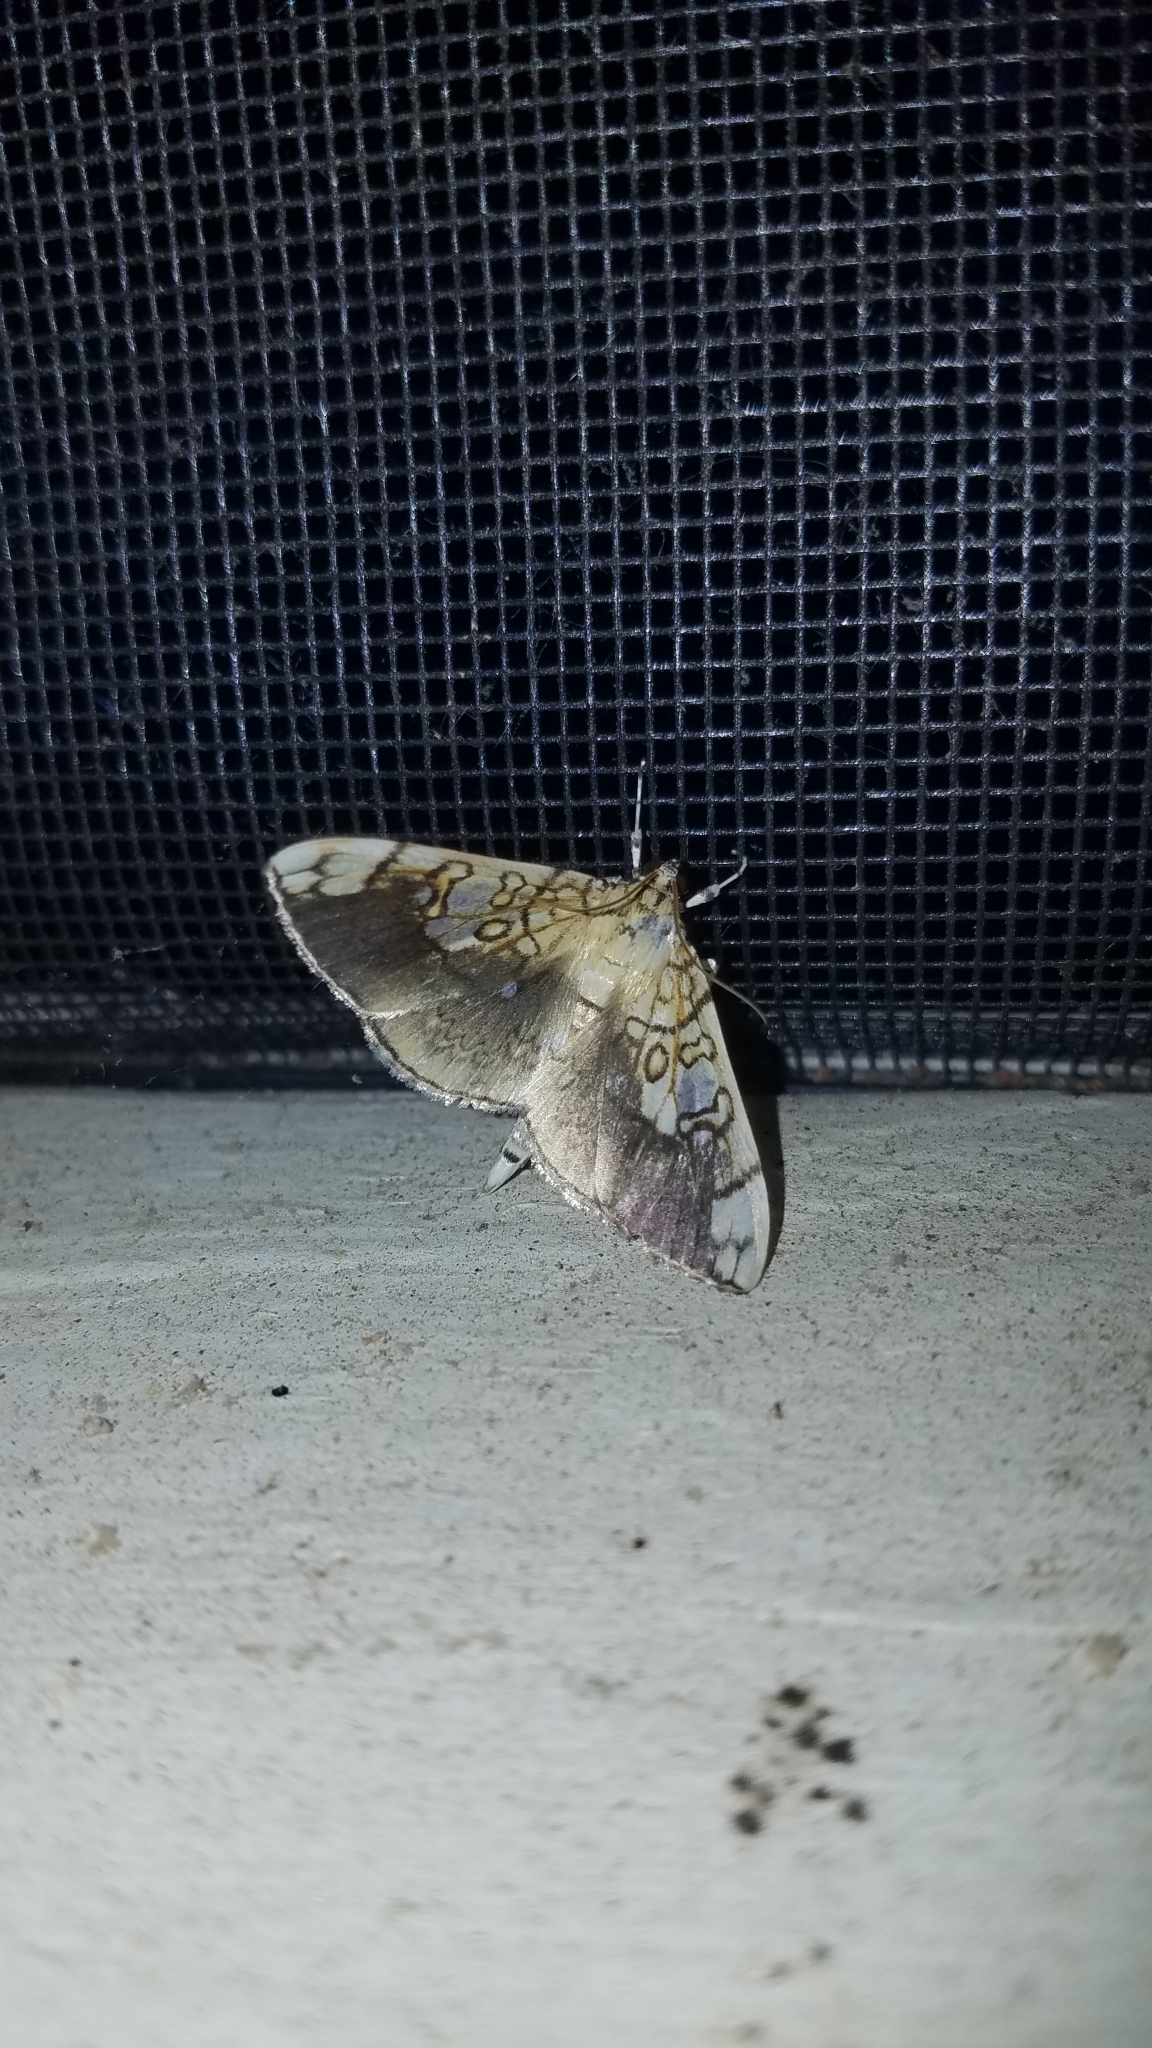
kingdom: Animalia
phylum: Arthropoda
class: Insecta
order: Lepidoptera
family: Crambidae
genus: Pantographa
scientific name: Pantographa limata
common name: Basswood leafroller moth
